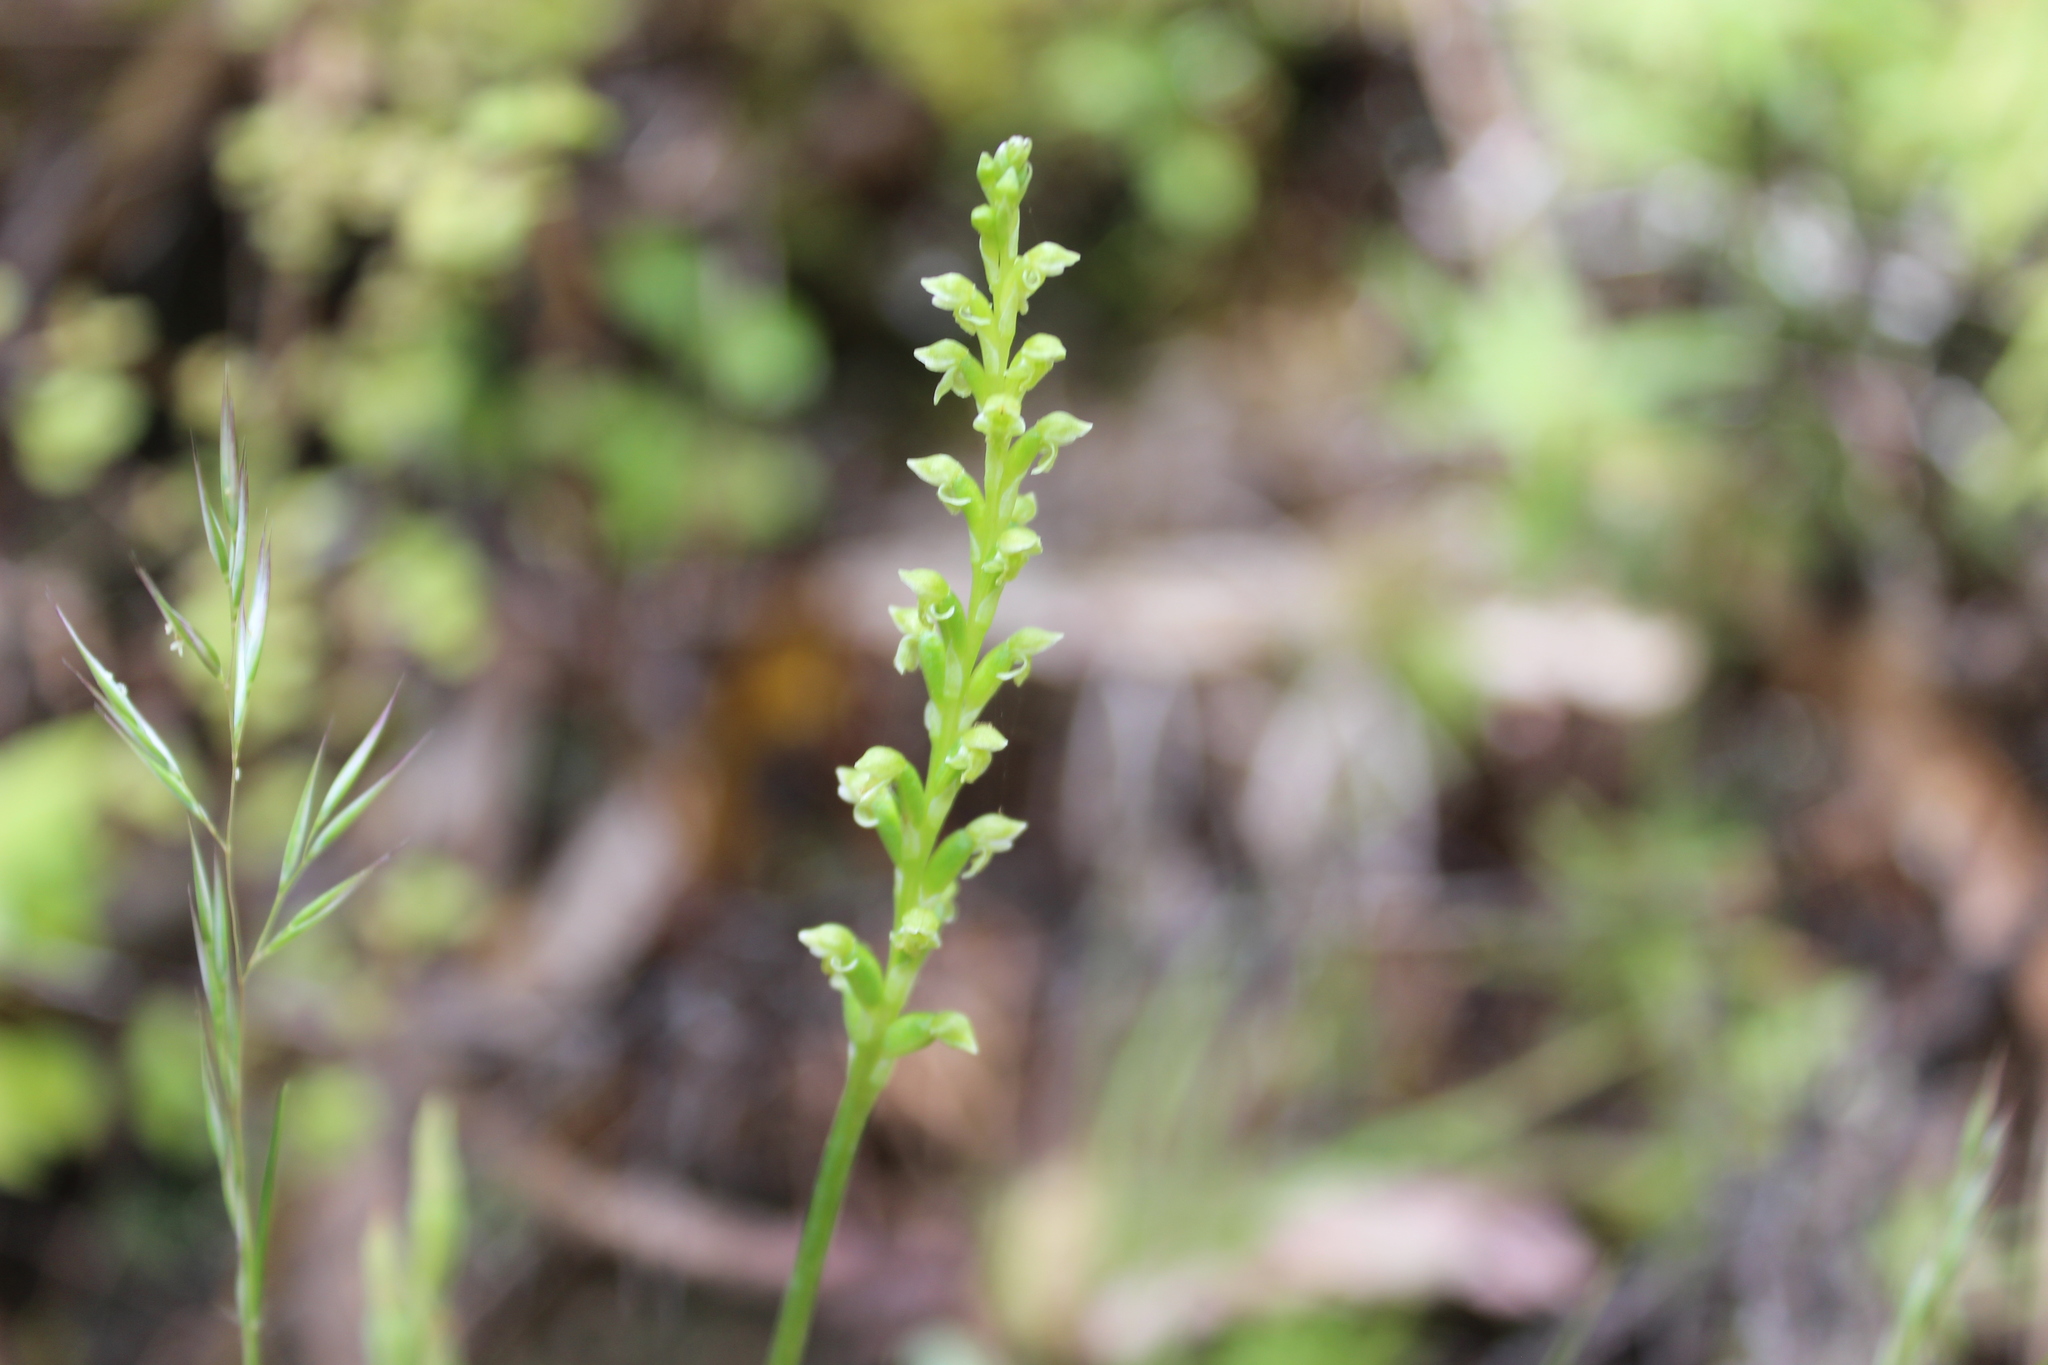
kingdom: Plantae
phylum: Tracheophyta
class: Liliopsida
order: Asparagales
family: Orchidaceae
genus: Microtis
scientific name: Microtis unifolia
